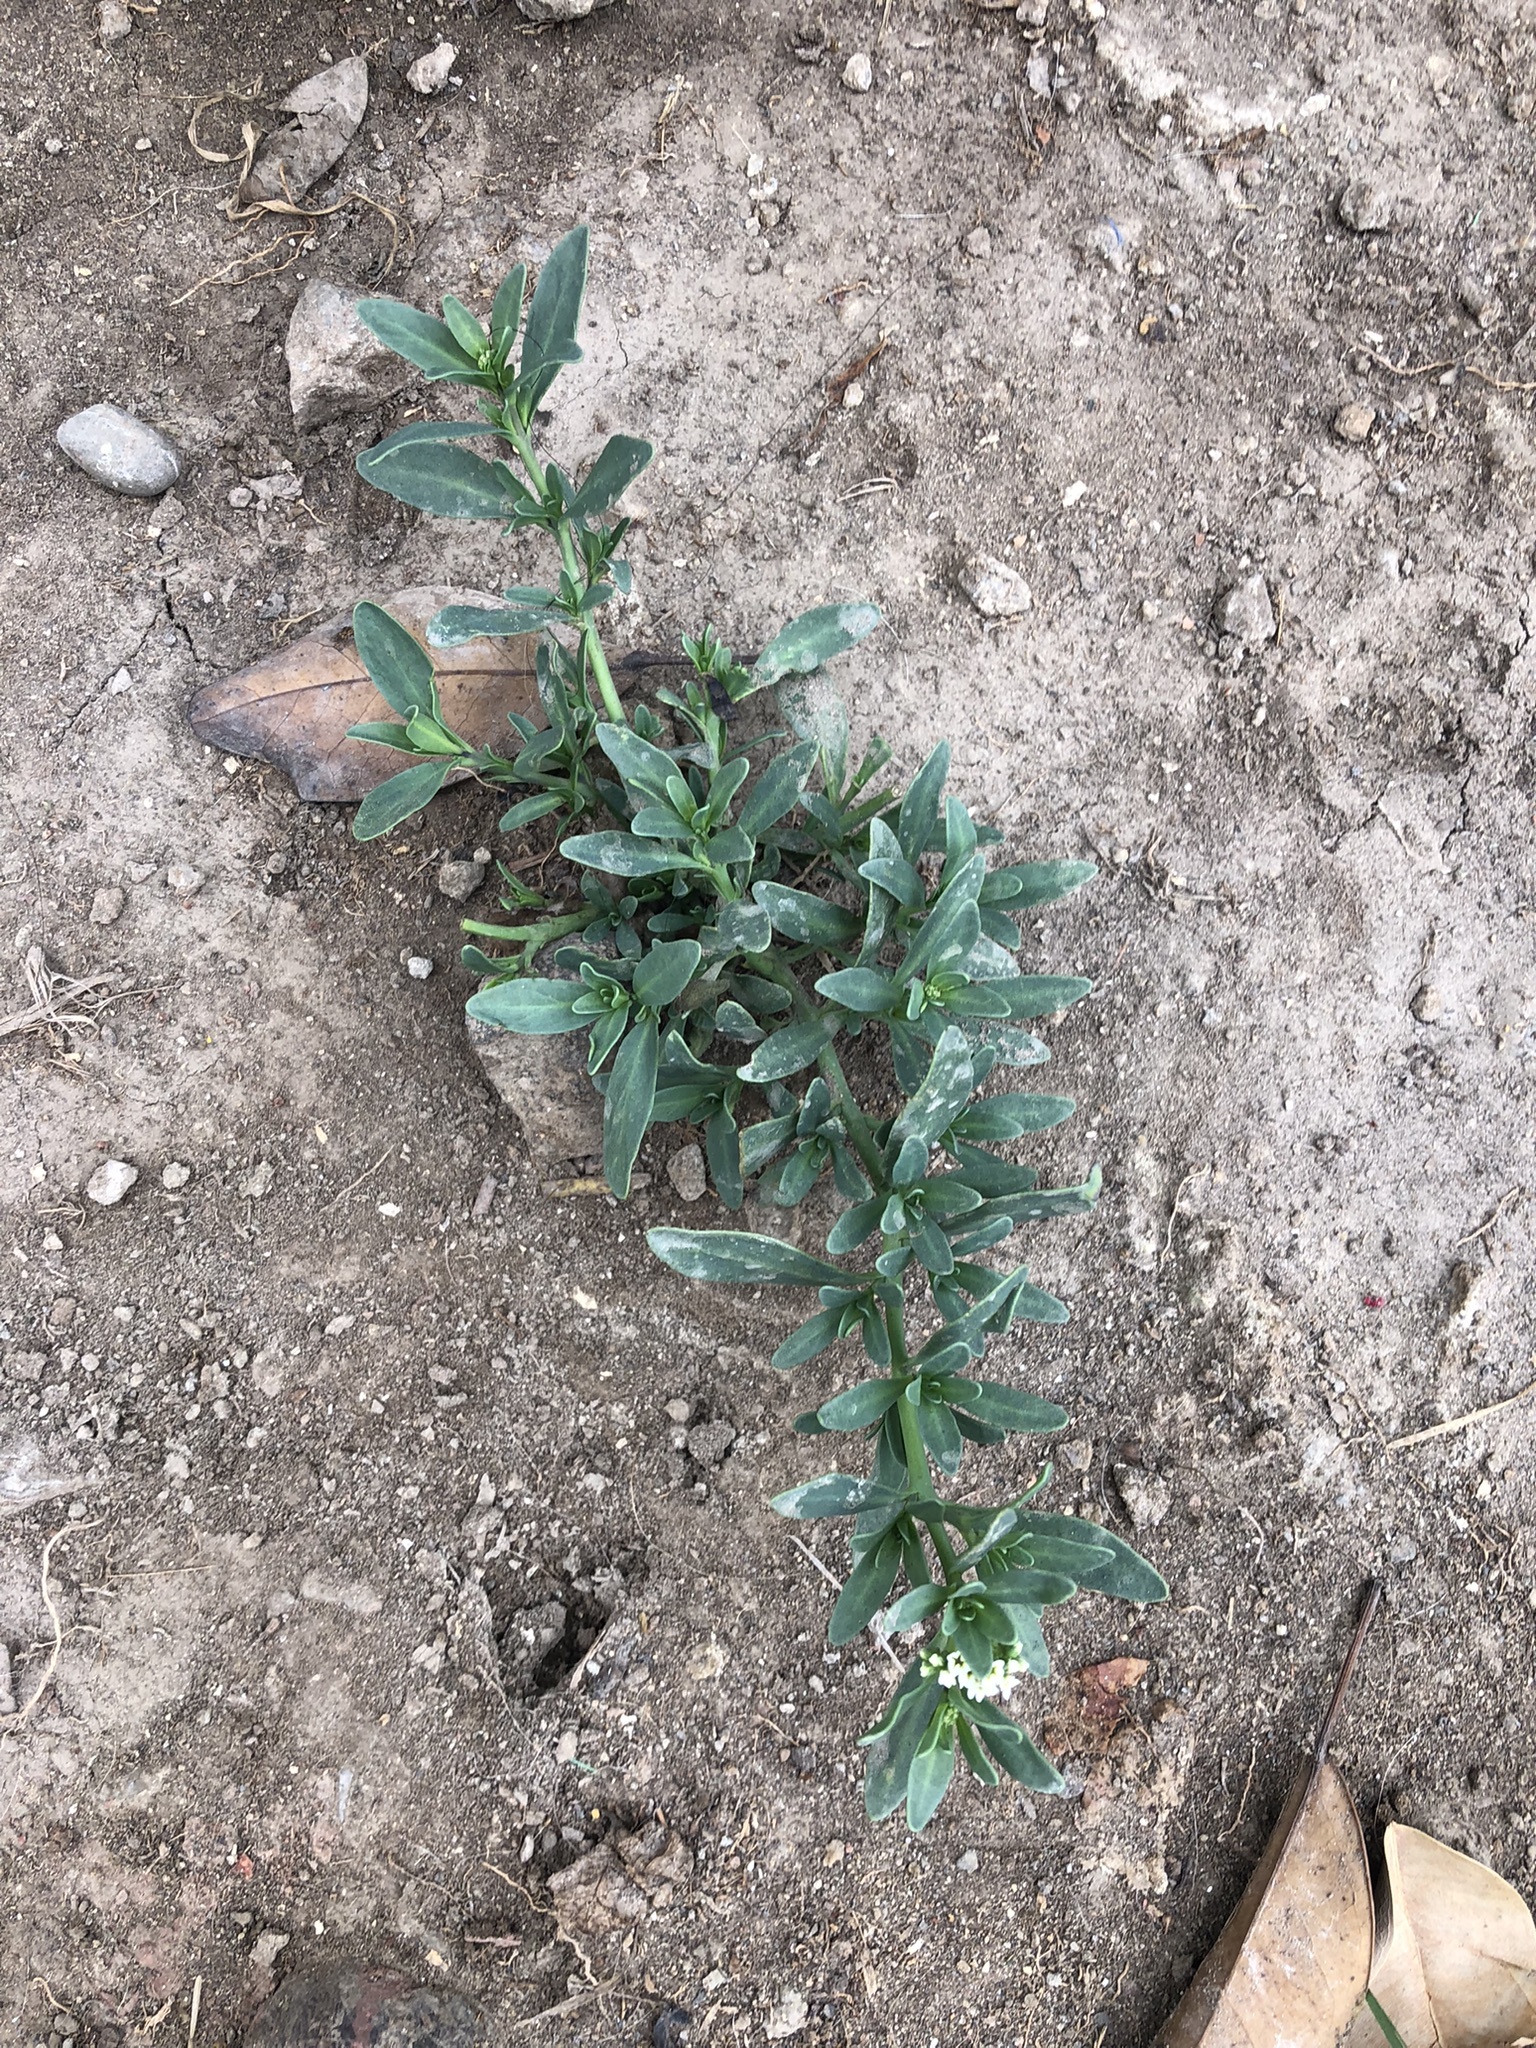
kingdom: Plantae
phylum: Tracheophyta
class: Magnoliopsida
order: Boraginales
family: Heliotropiaceae
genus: Heliotropium
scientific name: Heliotropium curassavicum
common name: Seaside heliotrope
